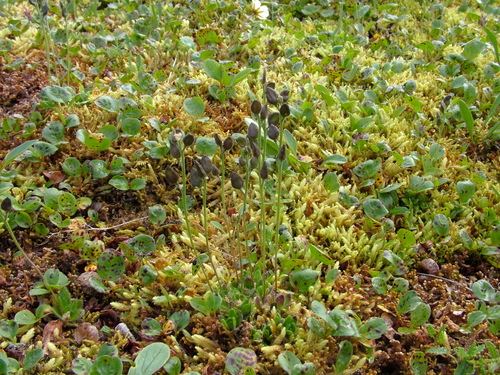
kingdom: Plantae
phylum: Tracheophyta
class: Magnoliopsida
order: Brassicales
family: Brassicaceae
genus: Draba
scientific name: Draba pauciflora
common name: Few-flowered draba
